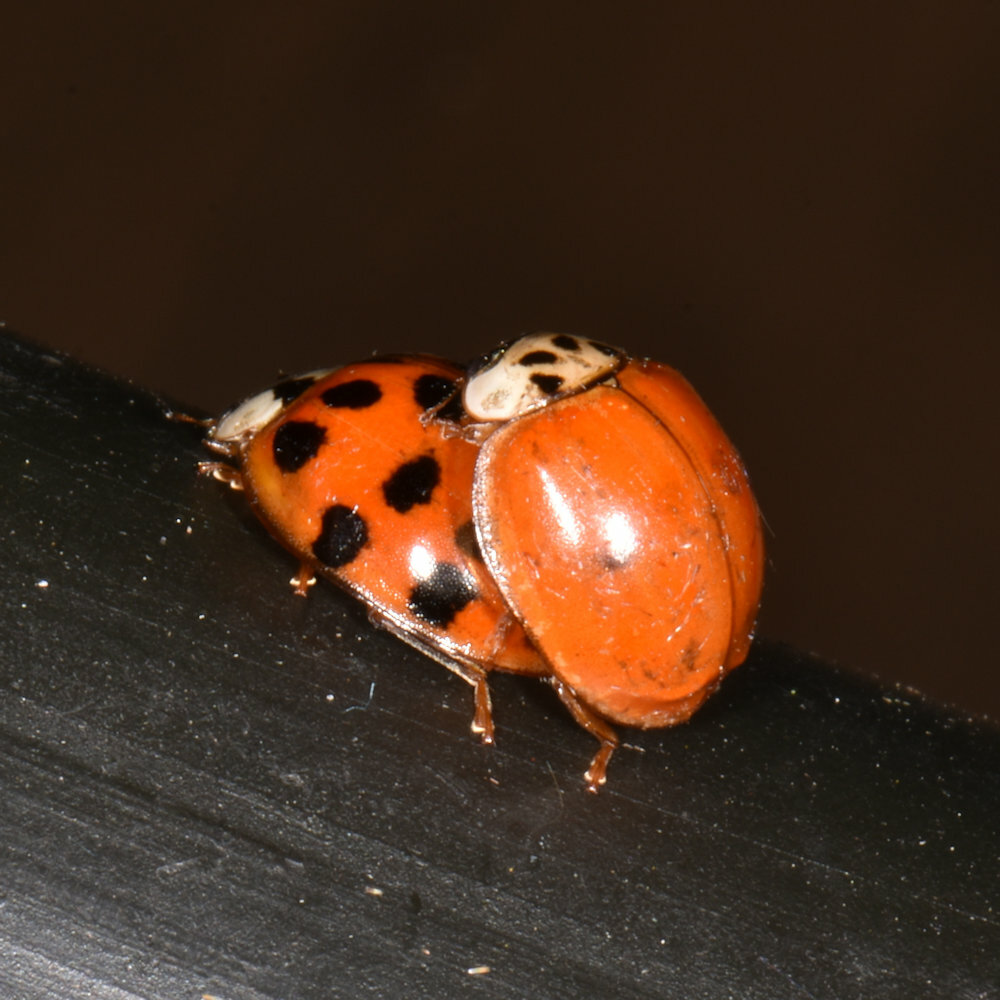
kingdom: Animalia
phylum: Arthropoda
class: Insecta
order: Coleoptera
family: Coccinellidae
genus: Harmonia
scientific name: Harmonia axyridis
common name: Harlequin ladybird
